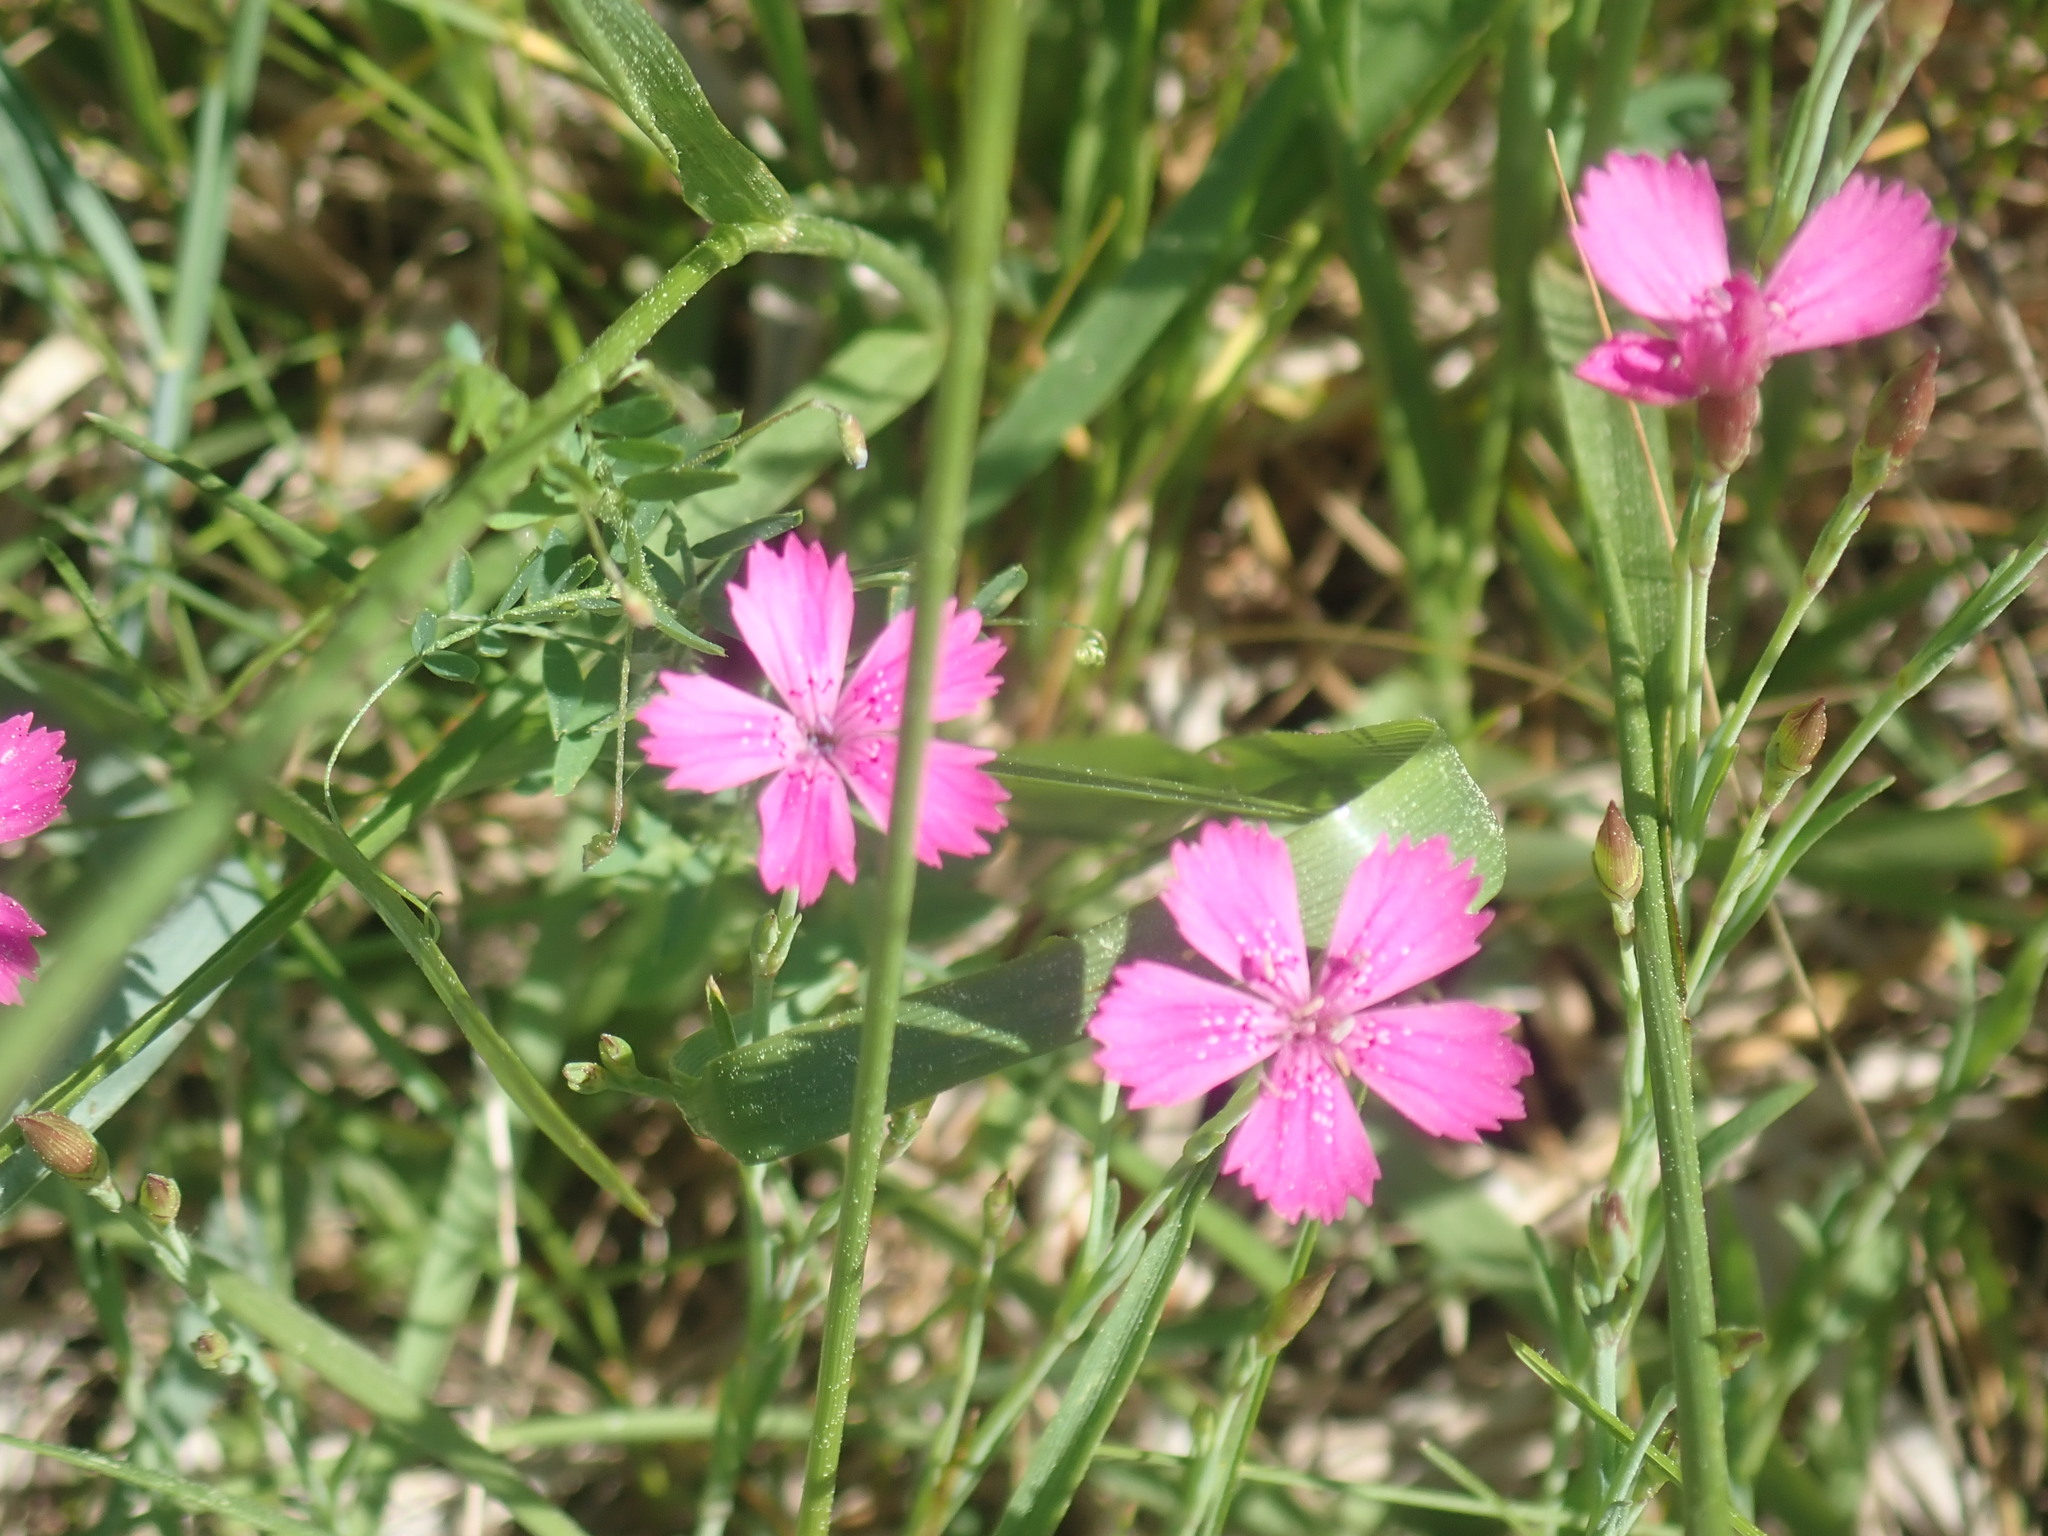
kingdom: Plantae
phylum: Tracheophyta
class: Magnoliopsida
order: Caryophyllales
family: Caryophyllaceae
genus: Dianthus
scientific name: Dianthus deltoides
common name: Maiden pink
